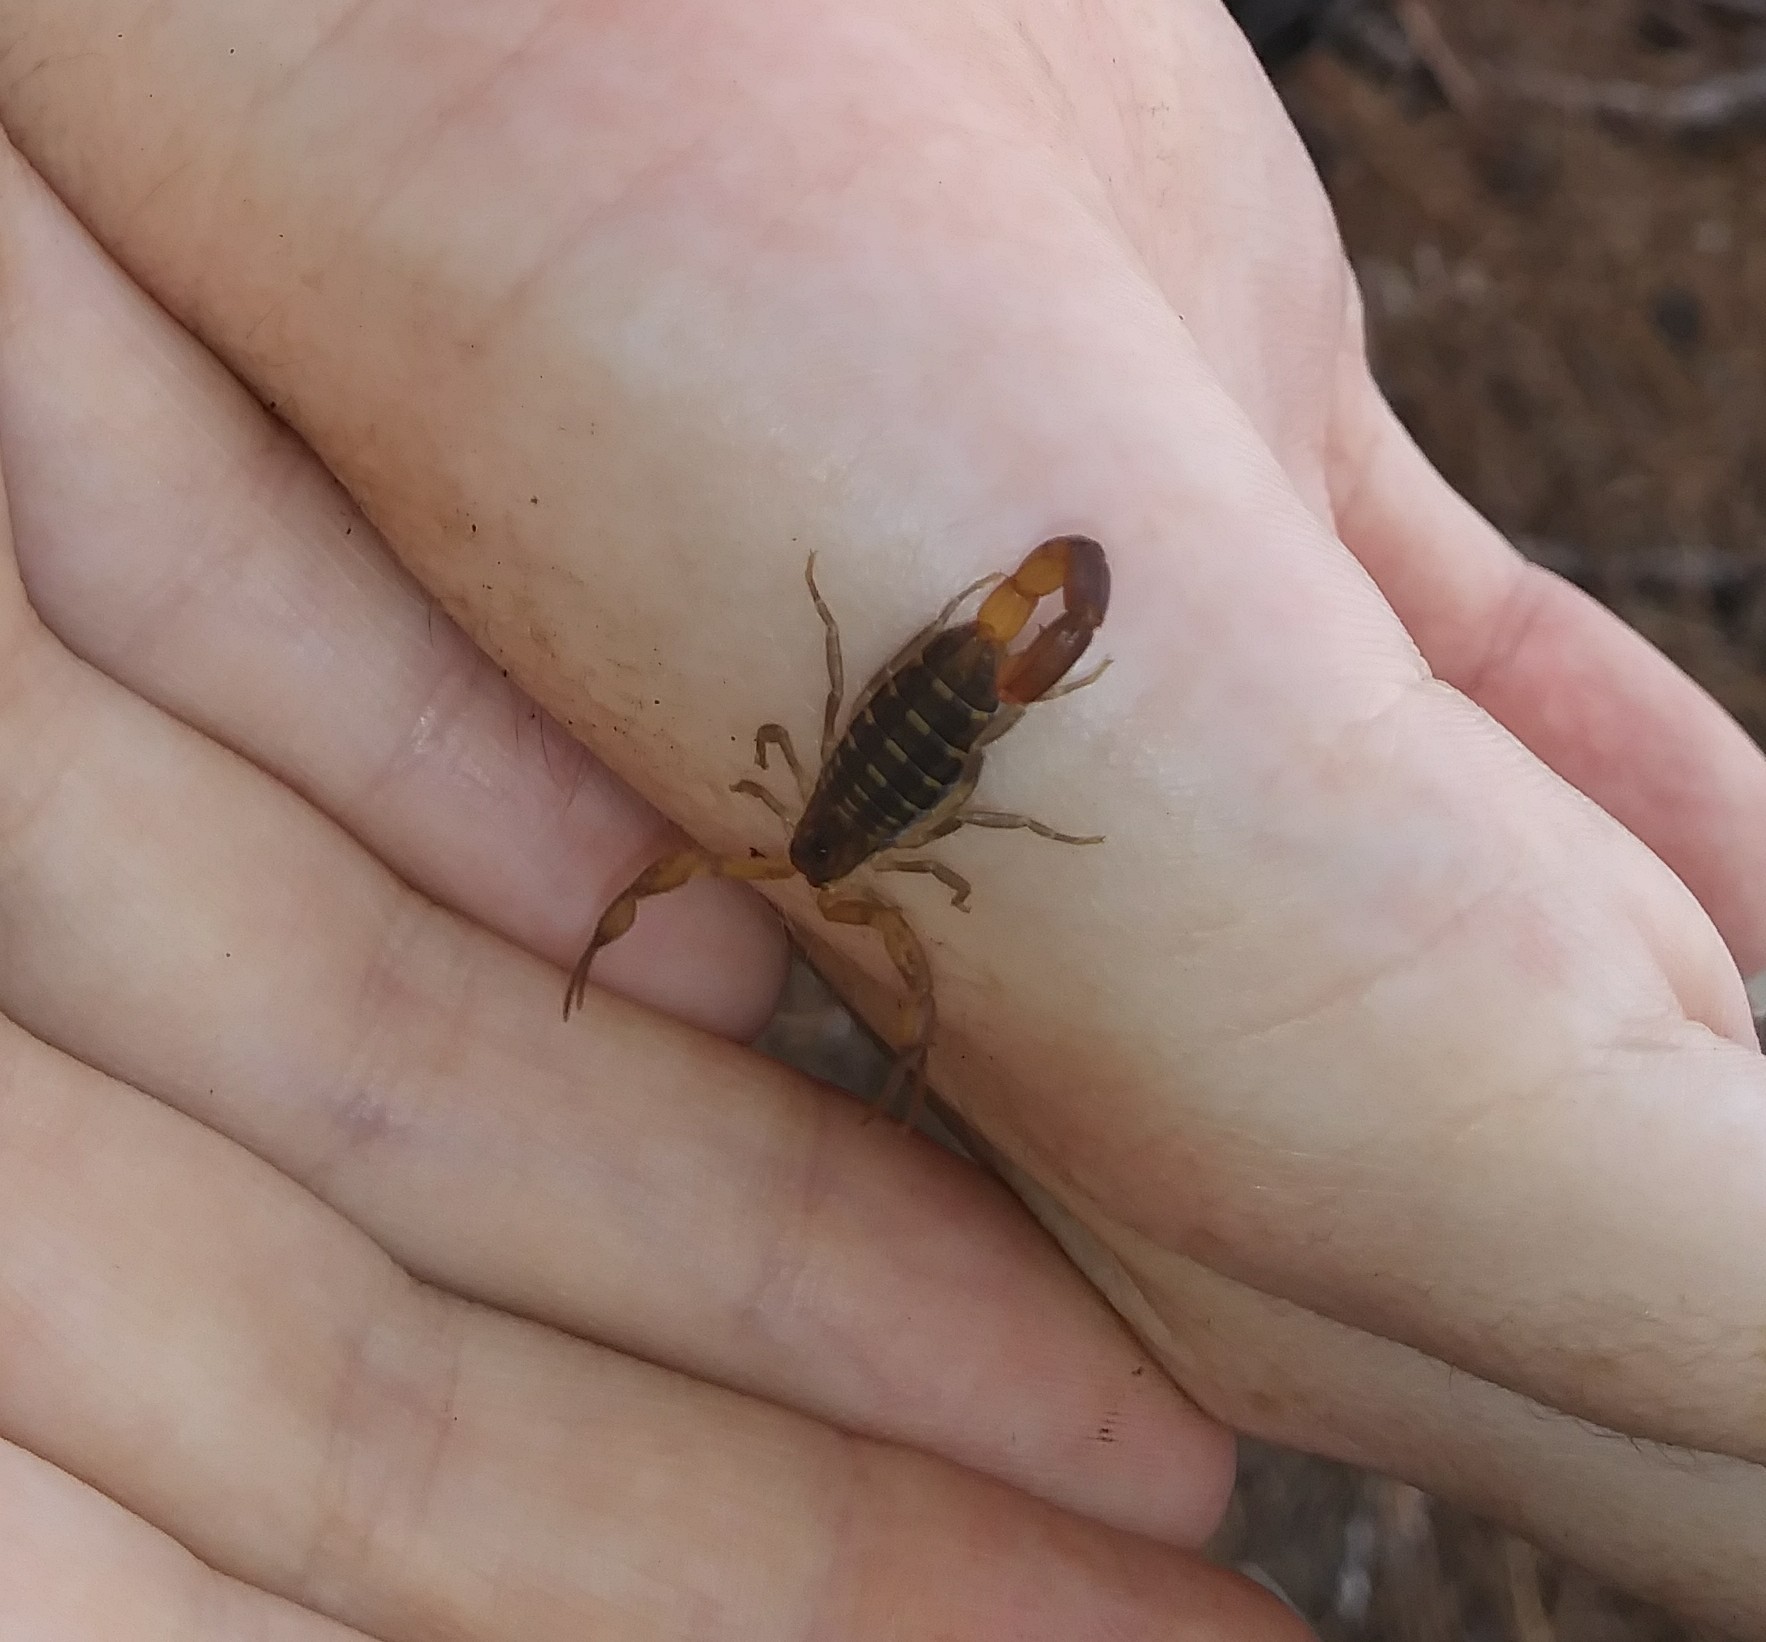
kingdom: Animalia
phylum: Arthropoda
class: Arachnida
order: Scorpiones
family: Buthidae
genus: Centruroides
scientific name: Centruroides hentzi
